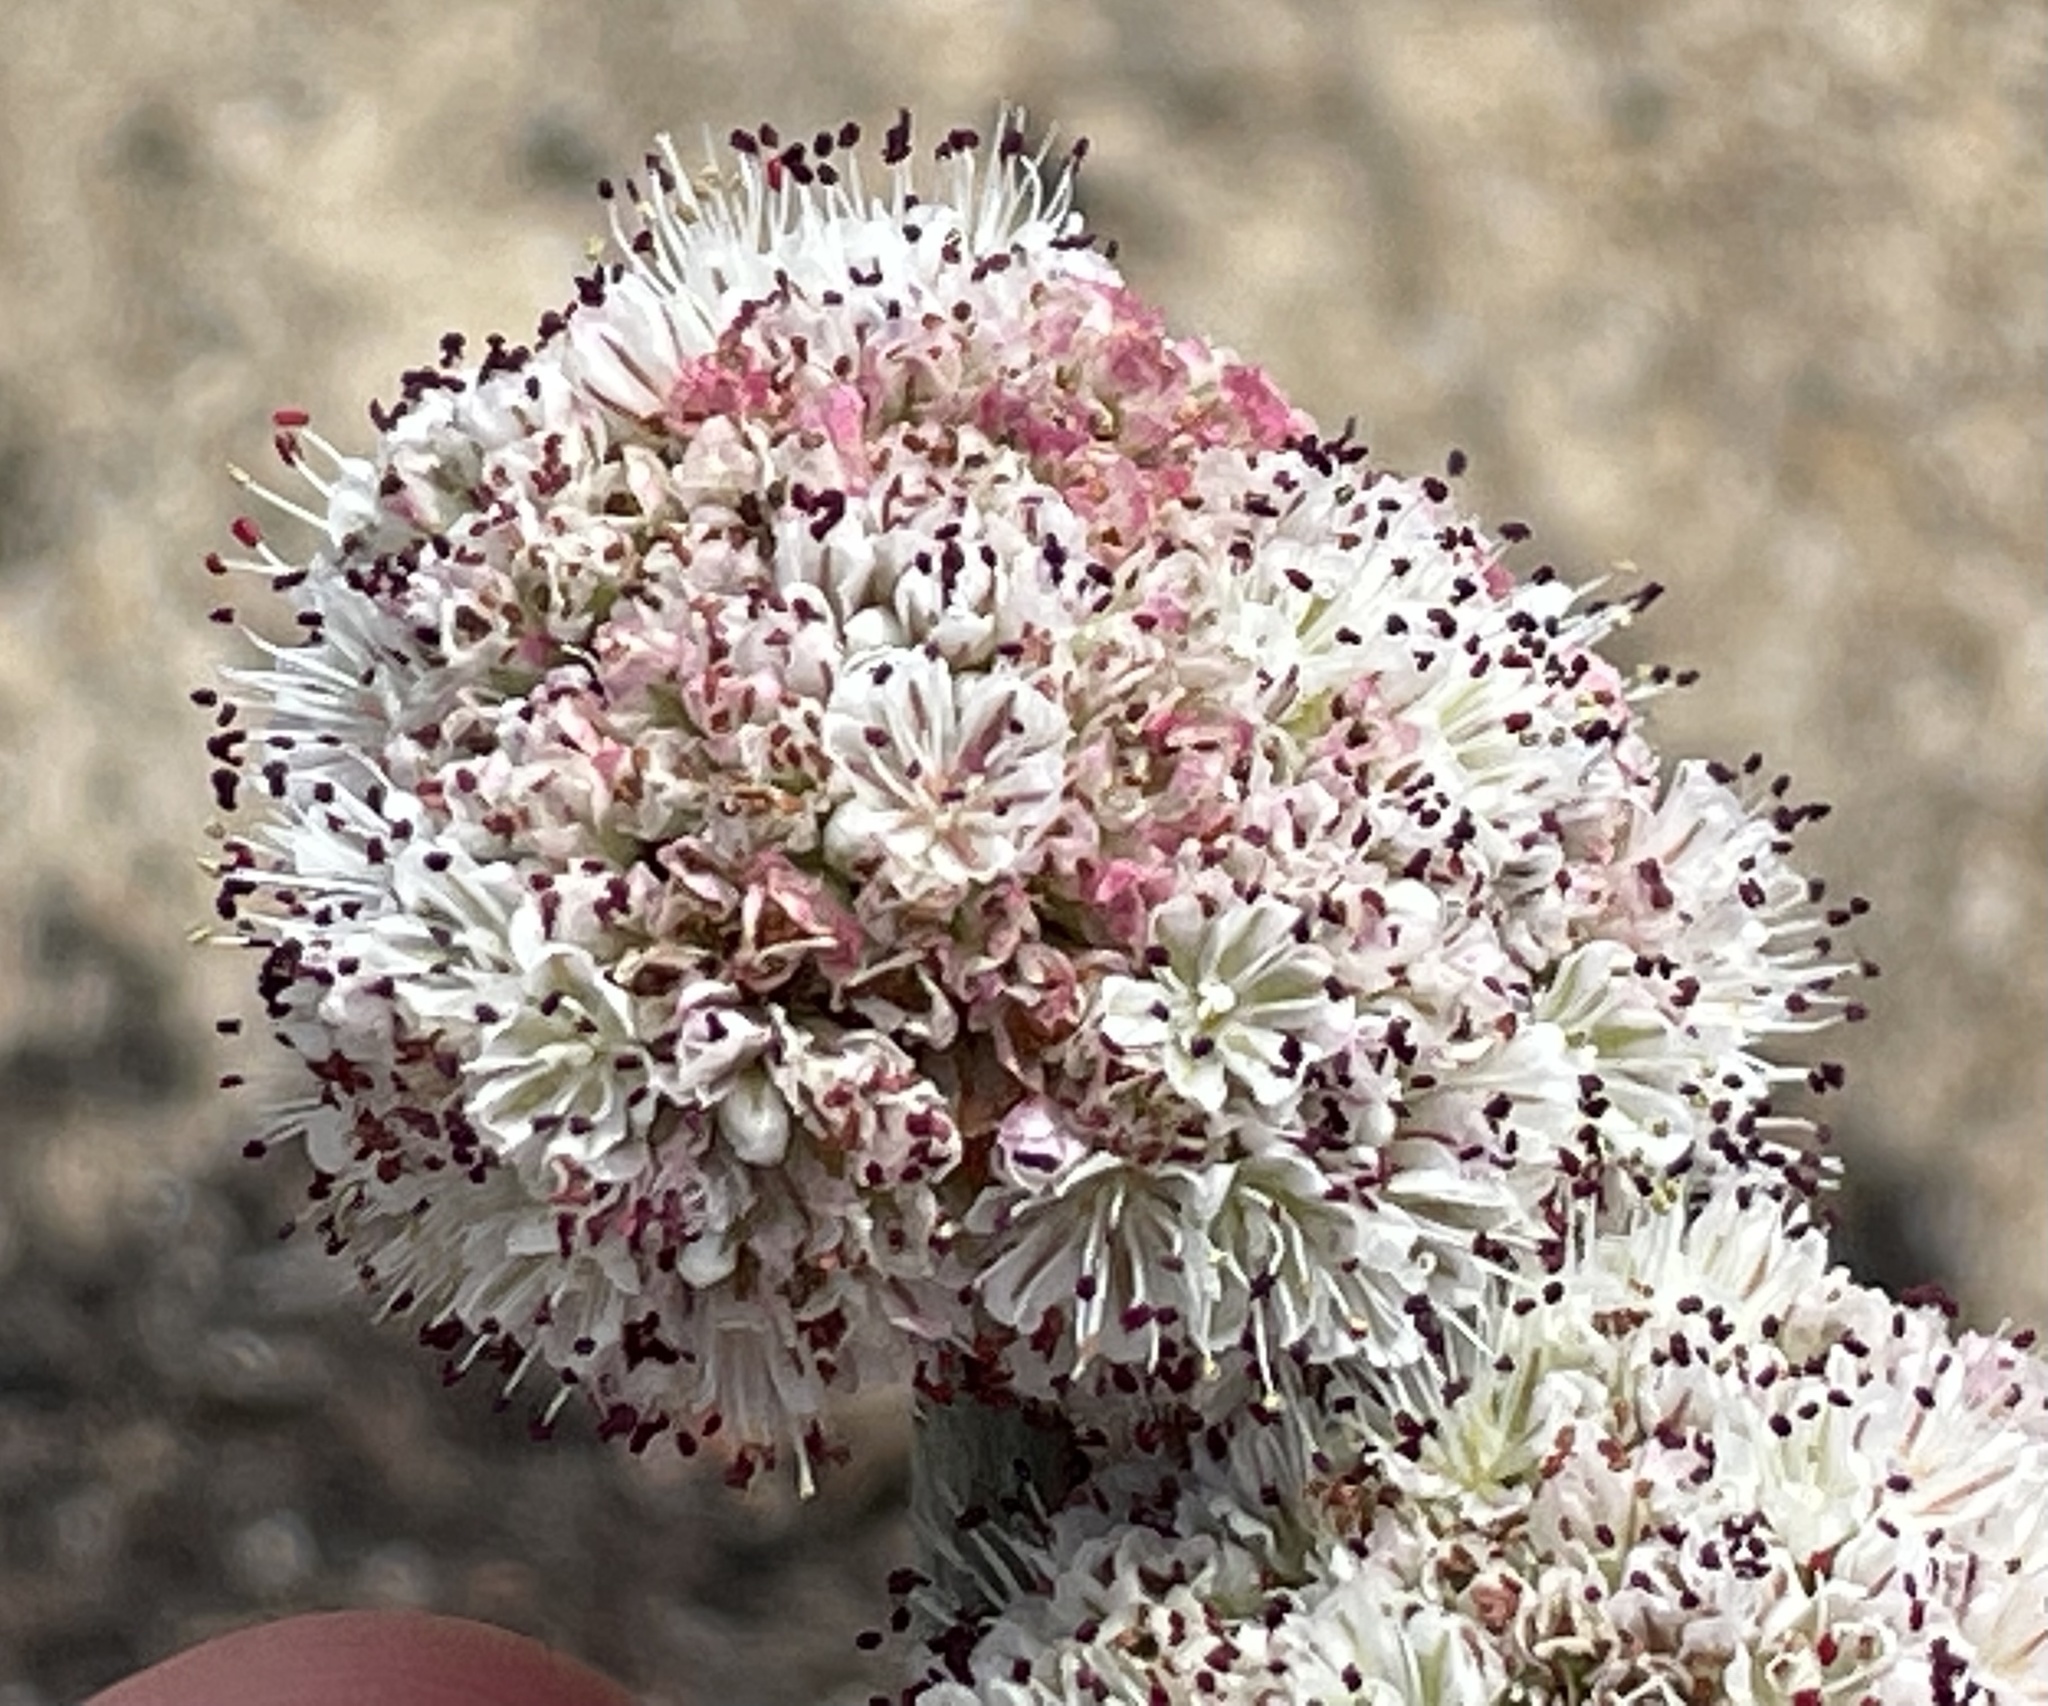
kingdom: Plantae
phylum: Tracheophyta
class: Magnoliopsida
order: Caryophyllales
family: Polygonaceae
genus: Eriogonum
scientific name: Eriogonum latifolium
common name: Seaside wild buckwheat
